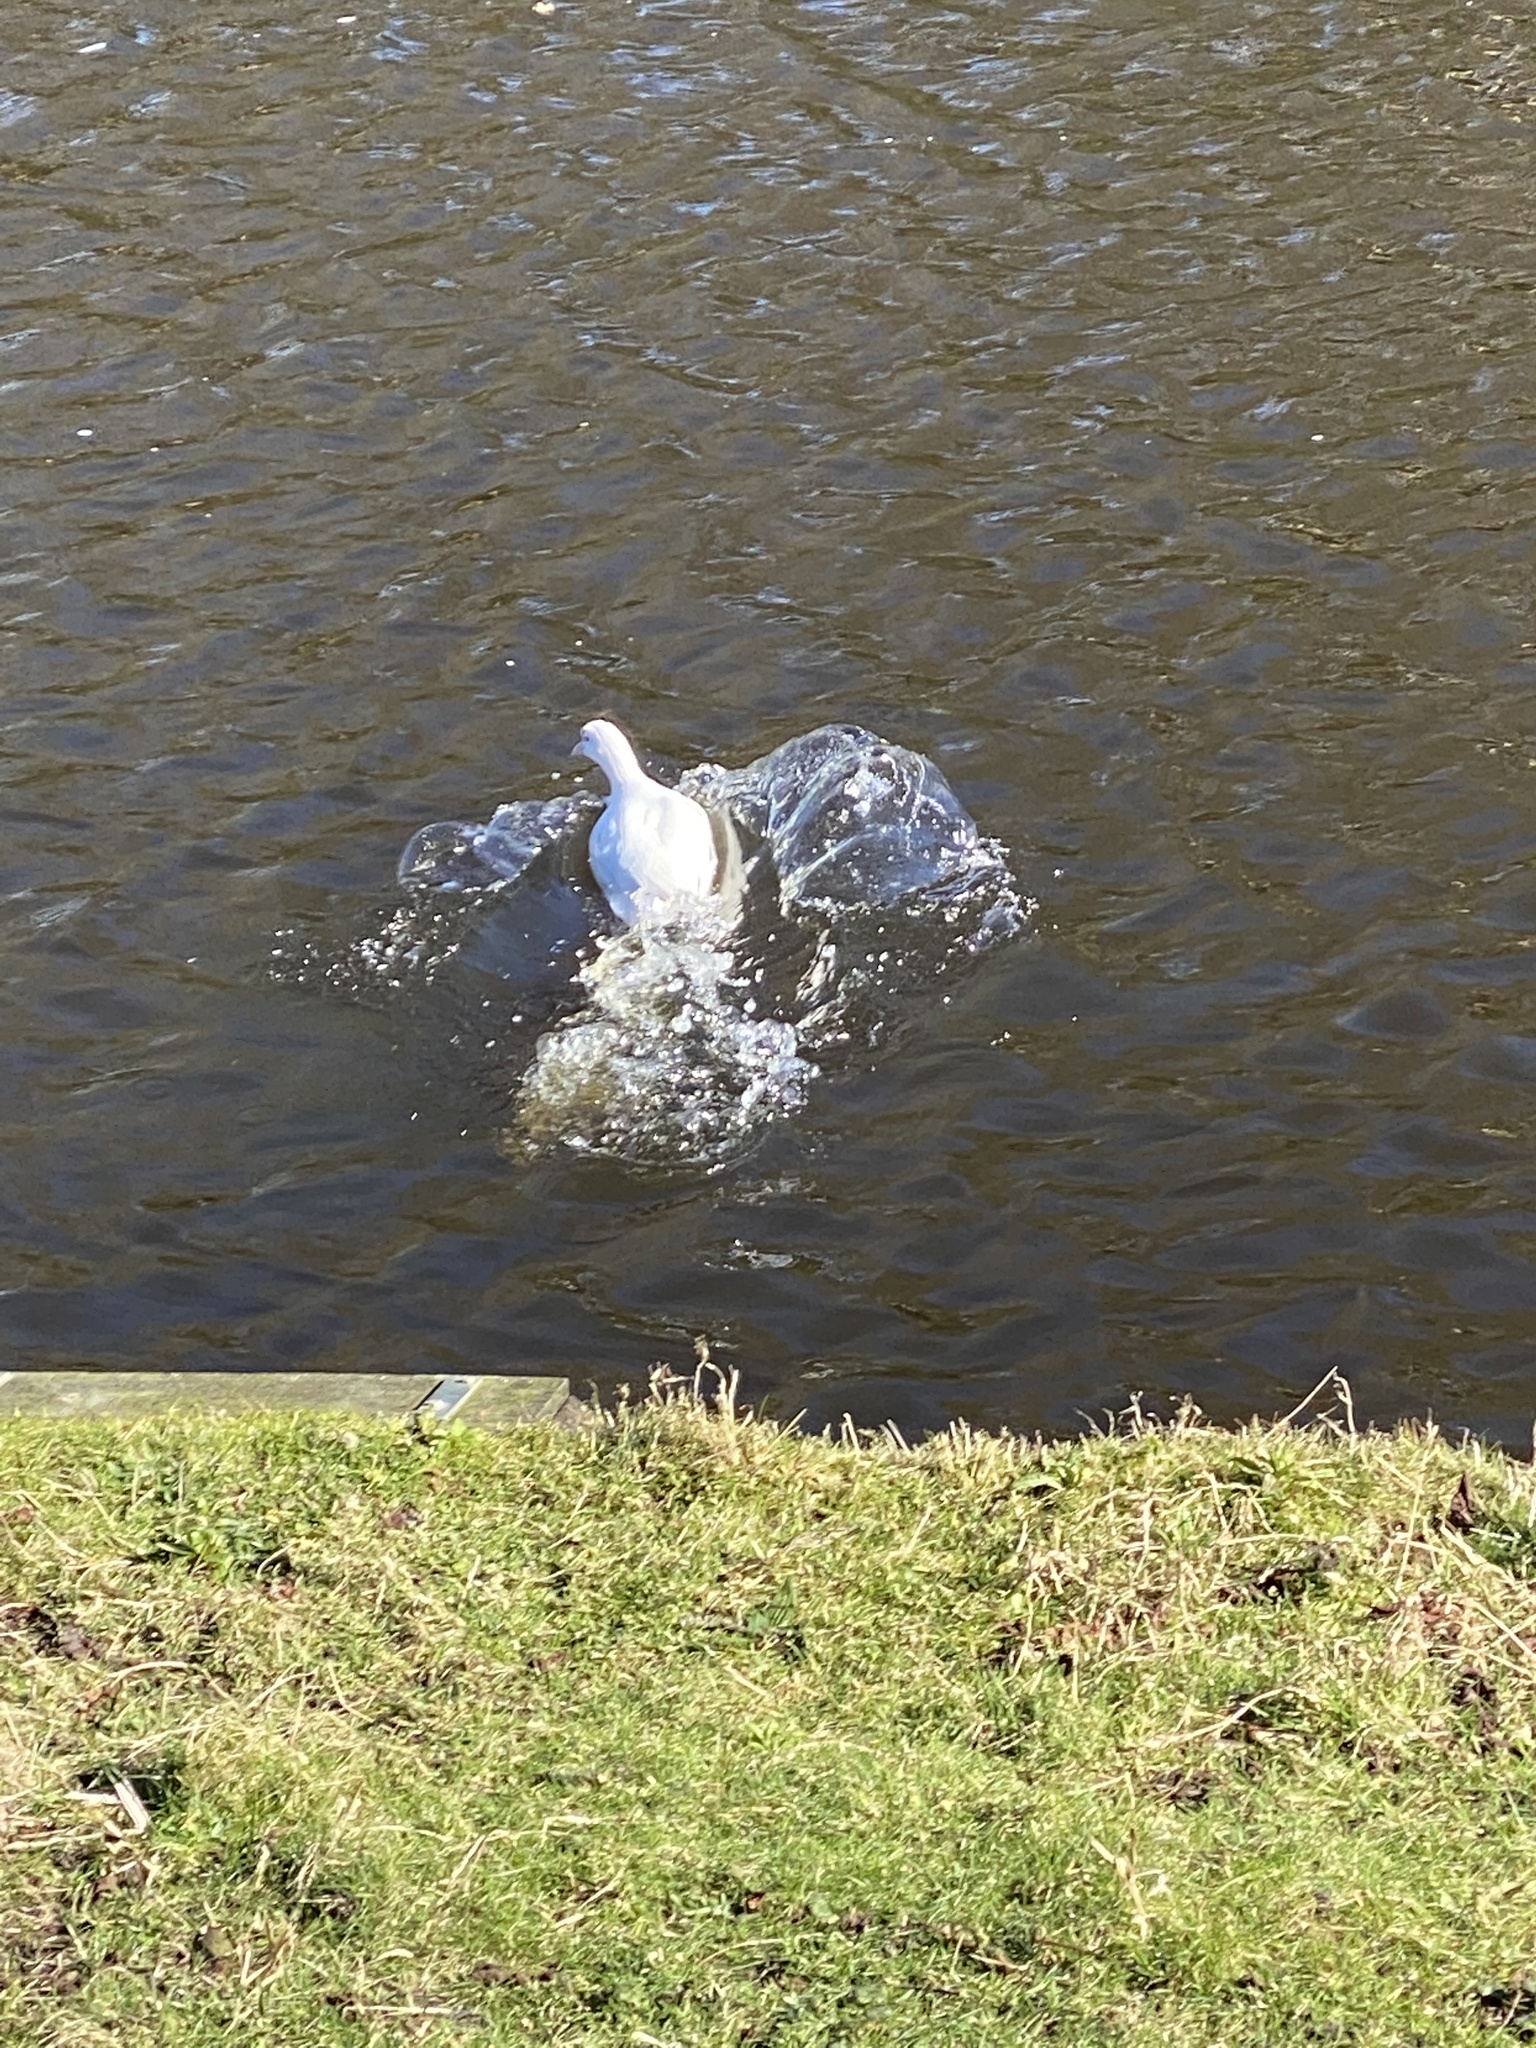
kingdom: Animalia
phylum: Chordata
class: Aves
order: Gruiformes
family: Rallidae
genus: Fulica
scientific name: Fulica atra
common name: Eurasian coot
